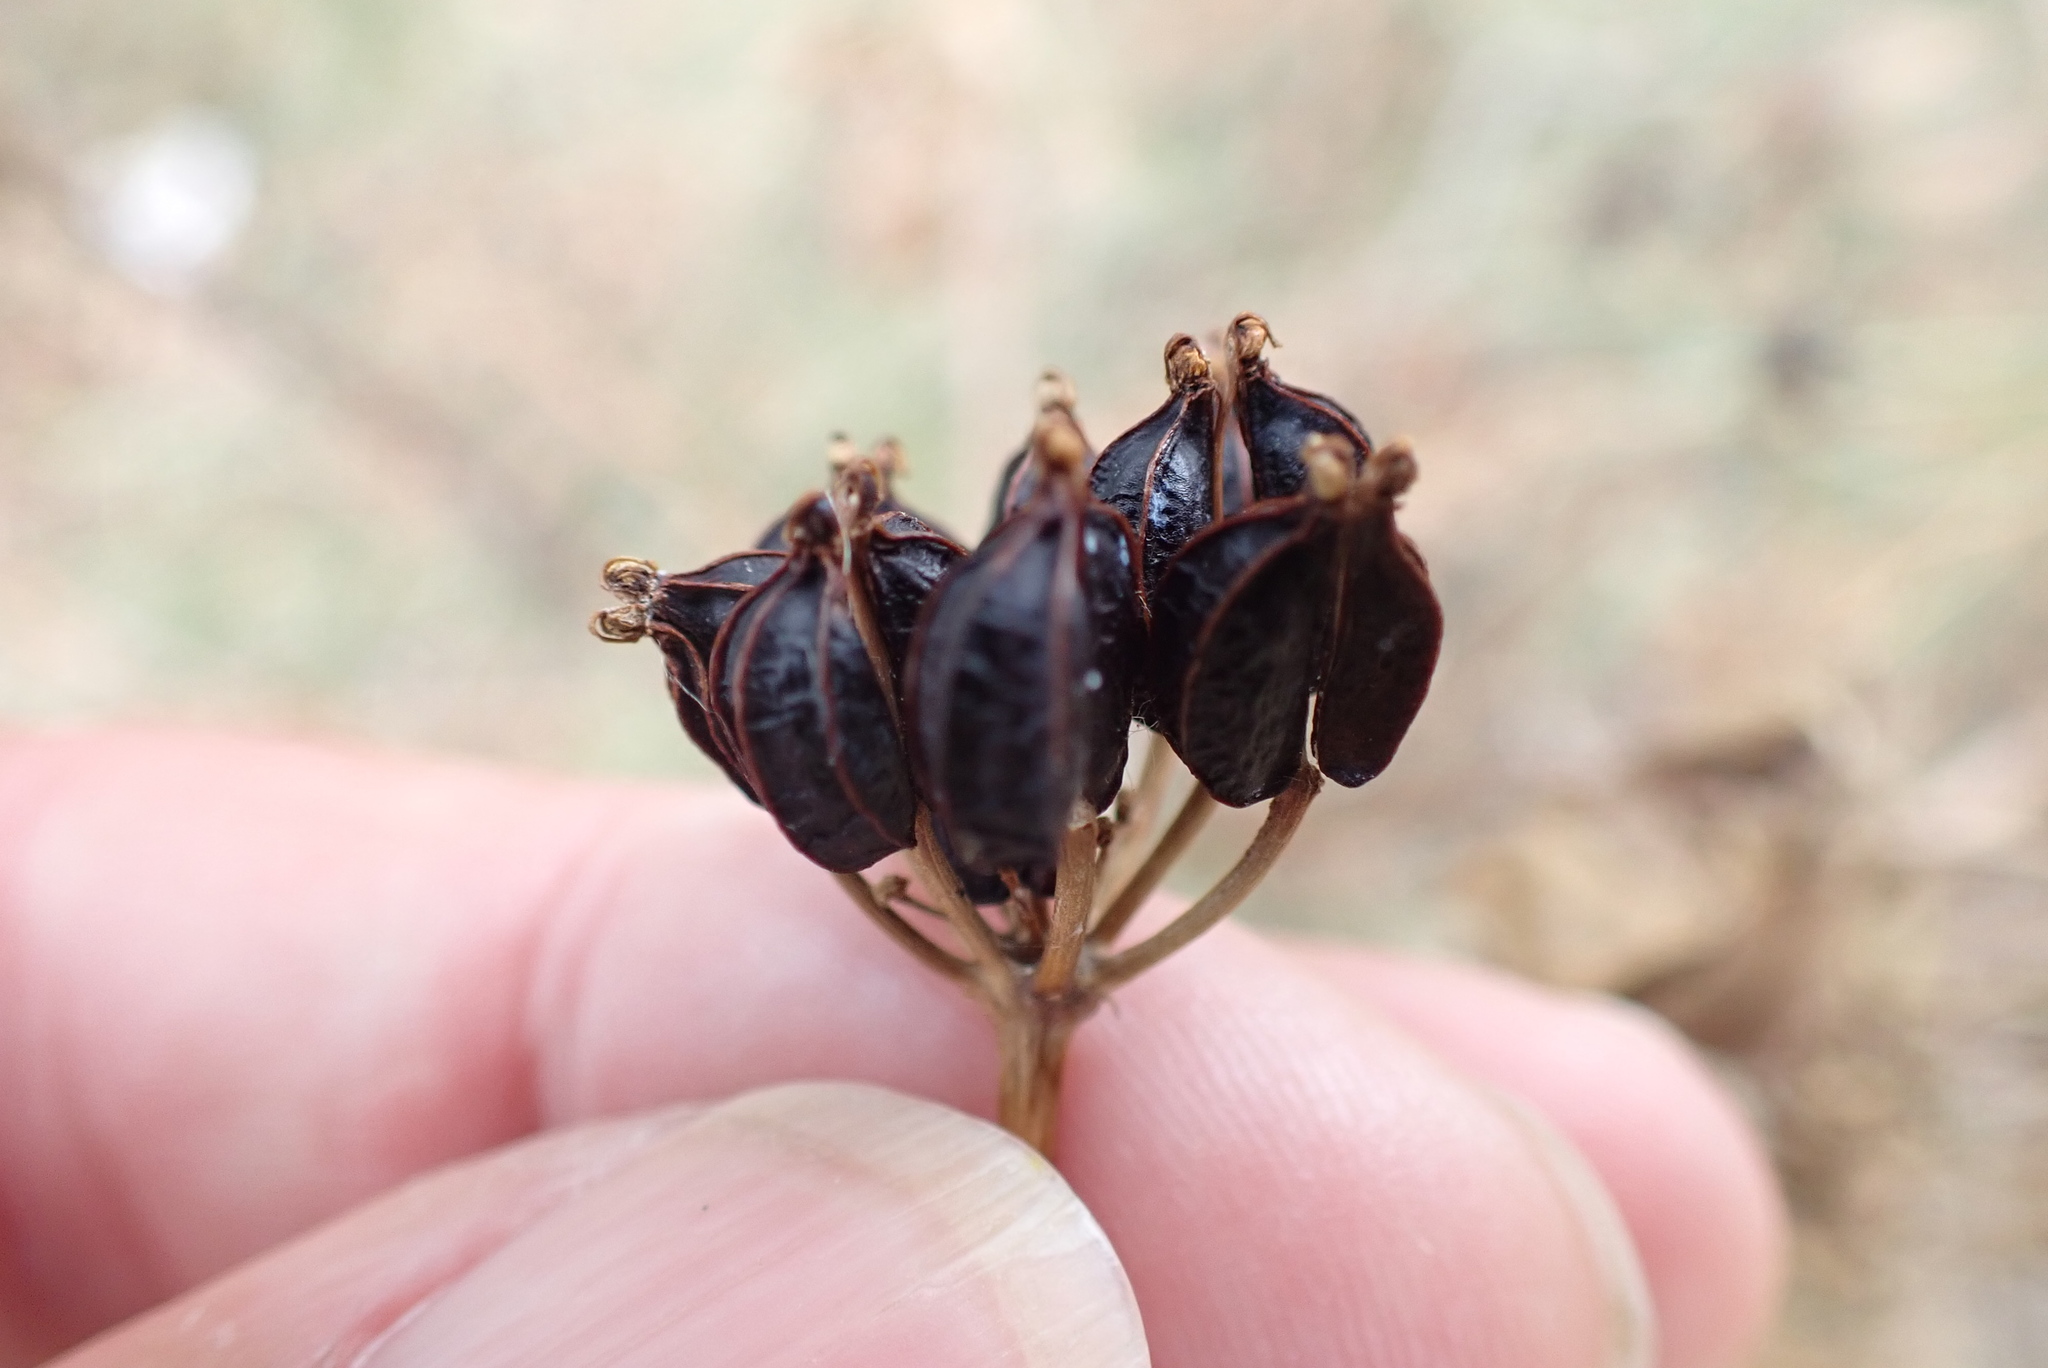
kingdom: Plantae
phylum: Tracheophyta
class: Magnoliopsida
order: Apiales
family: Apiaceae
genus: Smyrnium
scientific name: Smyrnium olusatrum
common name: Alexanders
